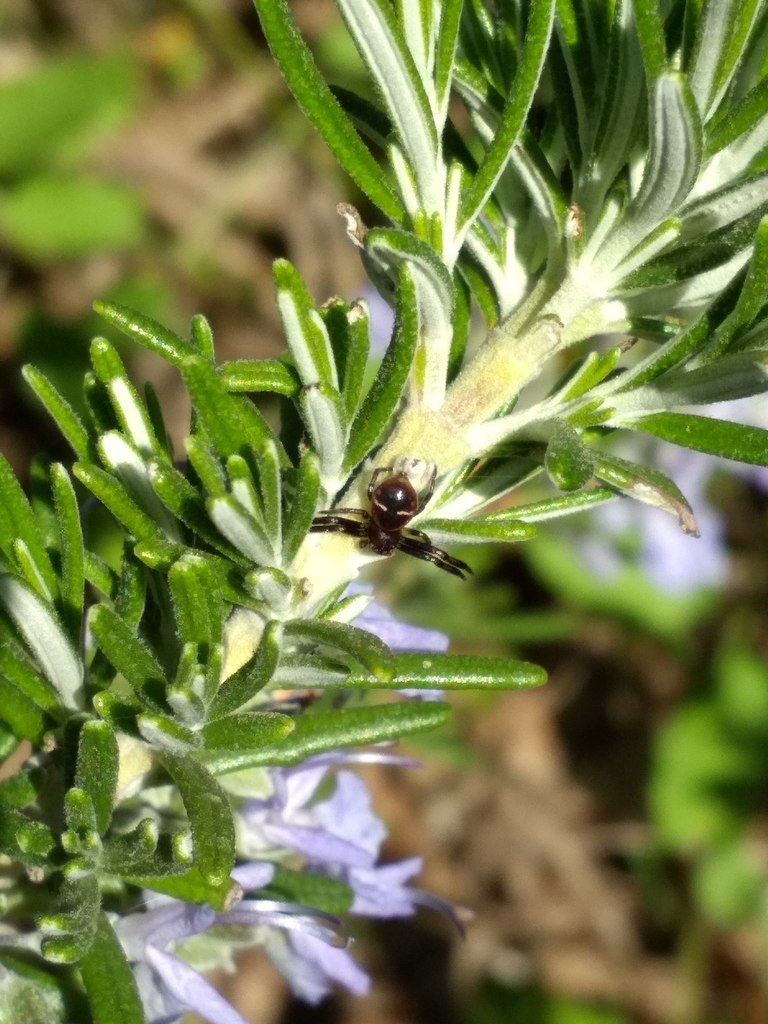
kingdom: Animalia
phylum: Arthropoda
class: Arachnida
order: Araneae
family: Thomisidae
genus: Synema
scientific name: Synema globosum
